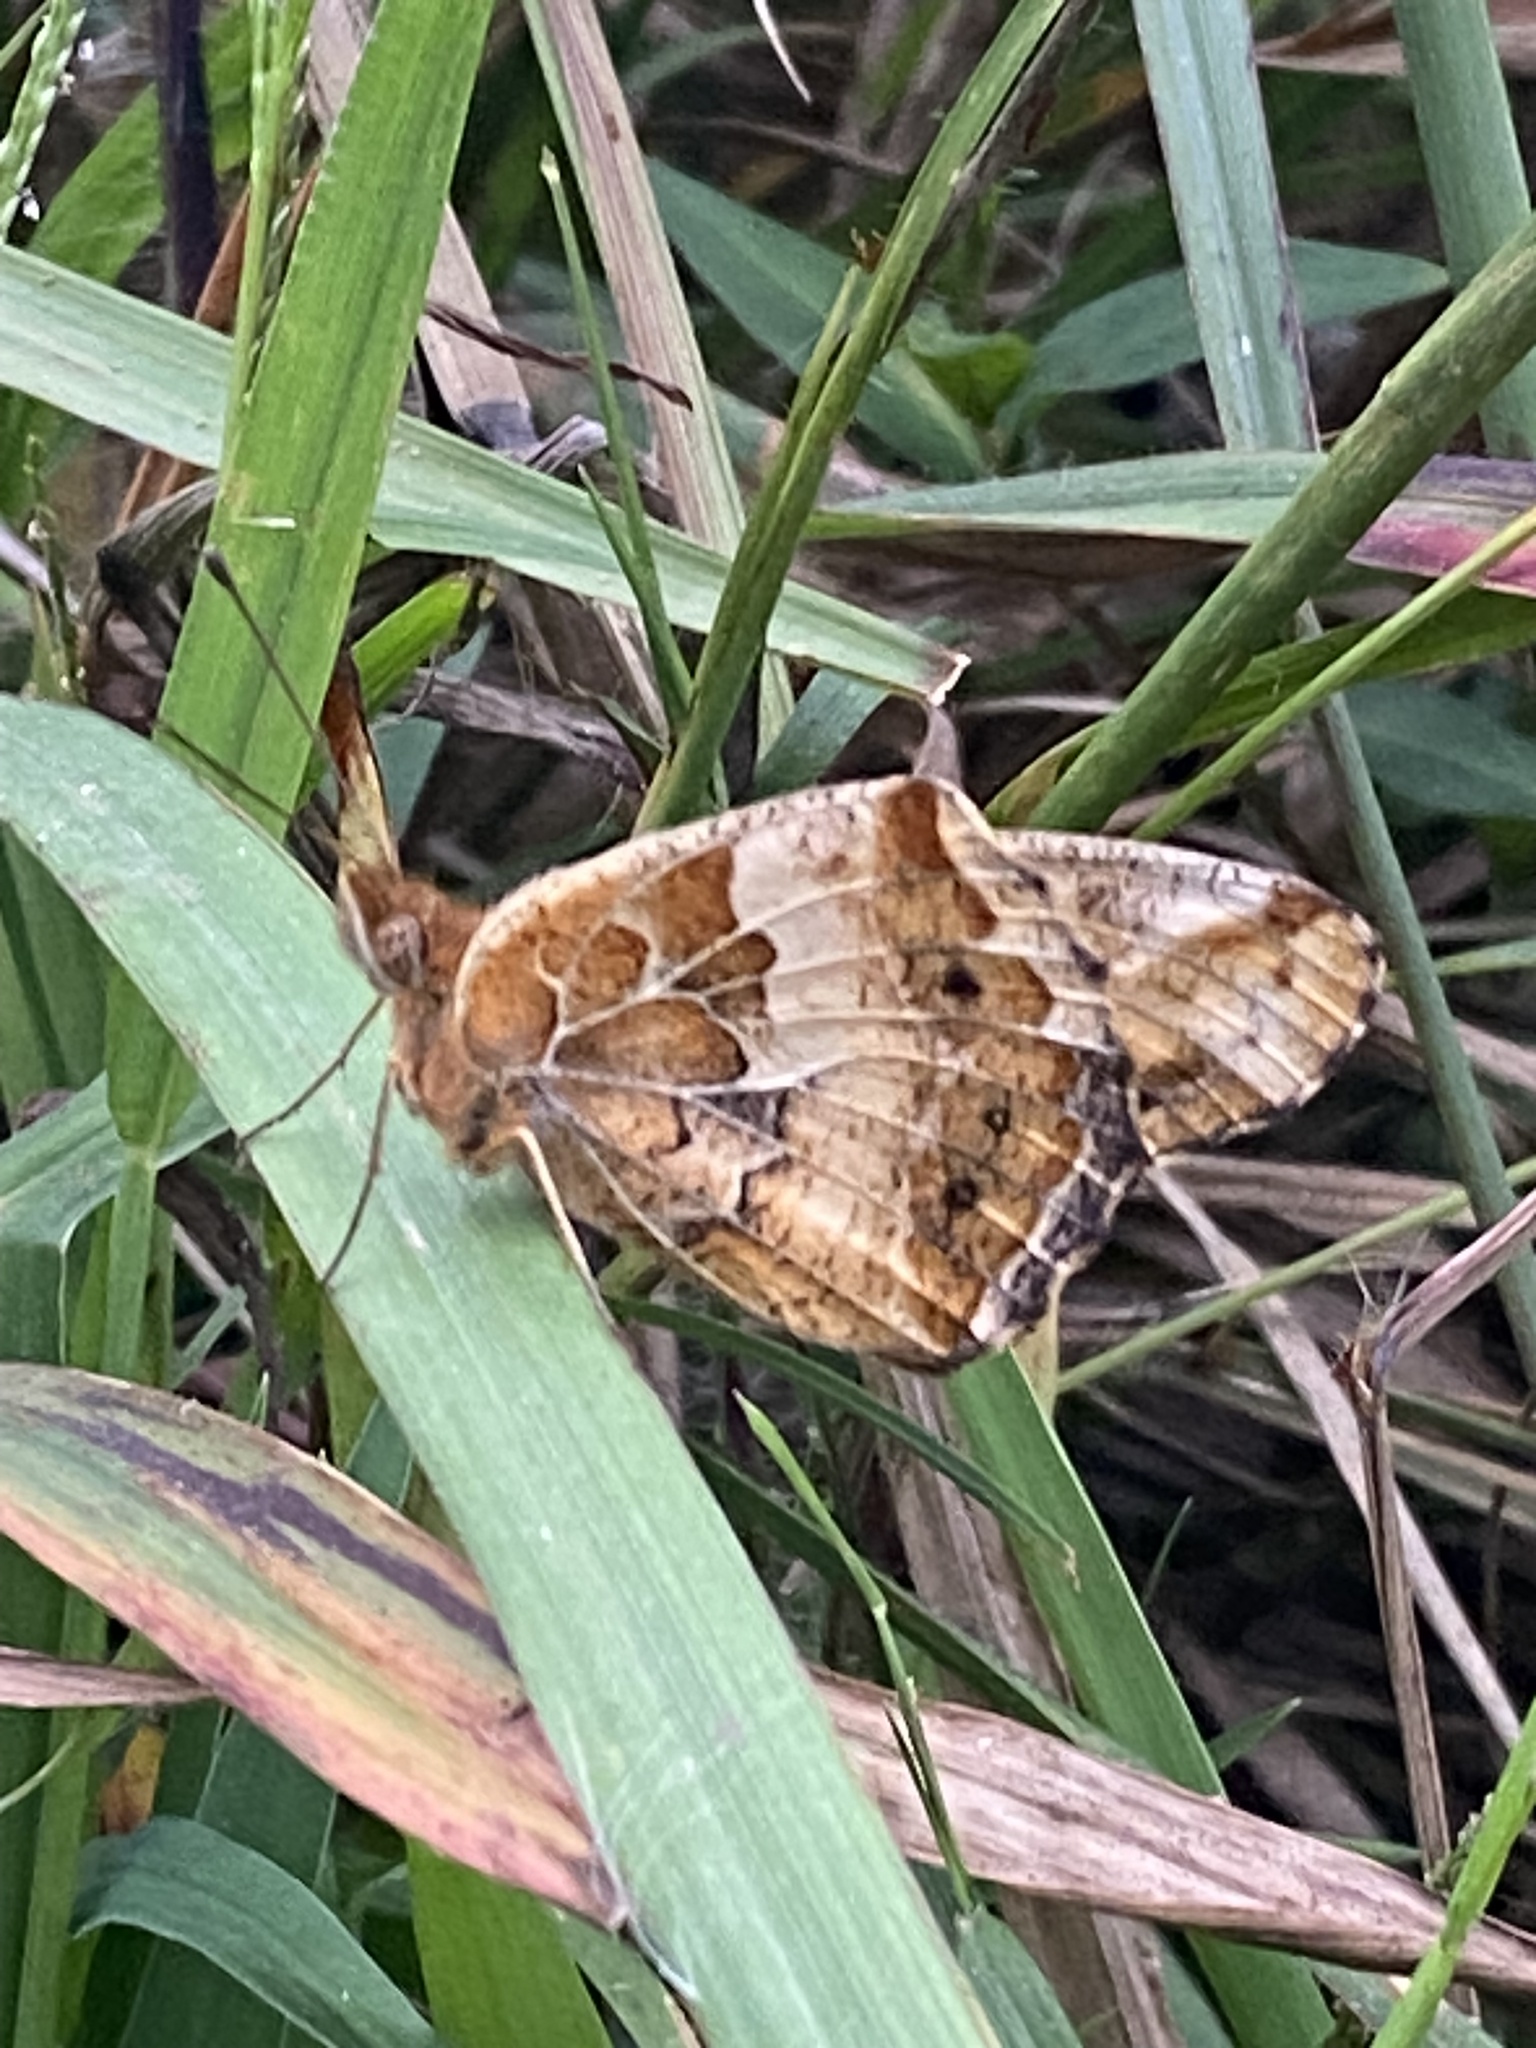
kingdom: Animalia
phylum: Arthropoda
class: Insecta
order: Lepidoptera
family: Nymphalidae
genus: Euptoieta
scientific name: Euptoieta claudia
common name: Variegated fritillary
